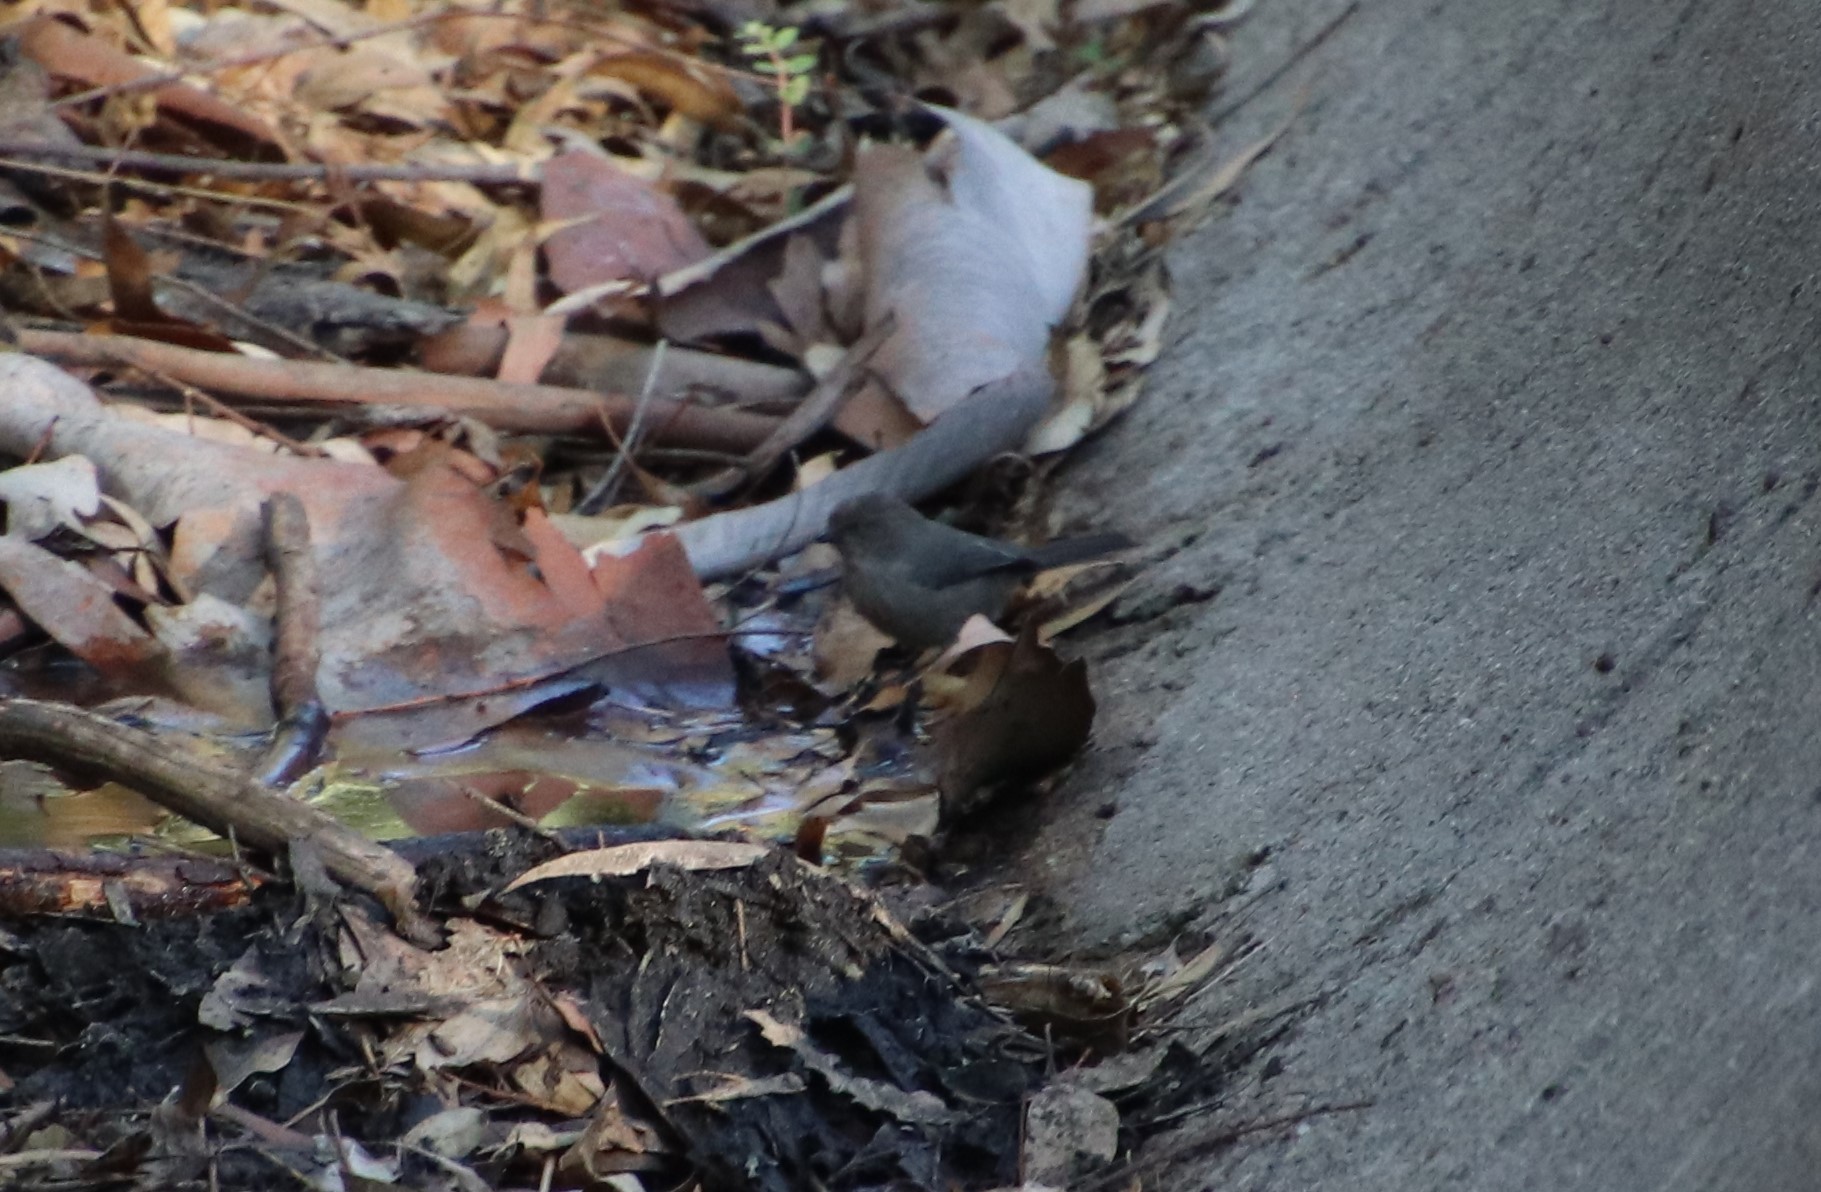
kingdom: Animalia
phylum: Chordata
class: Aves
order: Passeriformes
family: Aegithalidae
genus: Psaltriparus
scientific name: Psaltriparus minimus
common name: American bushtit
